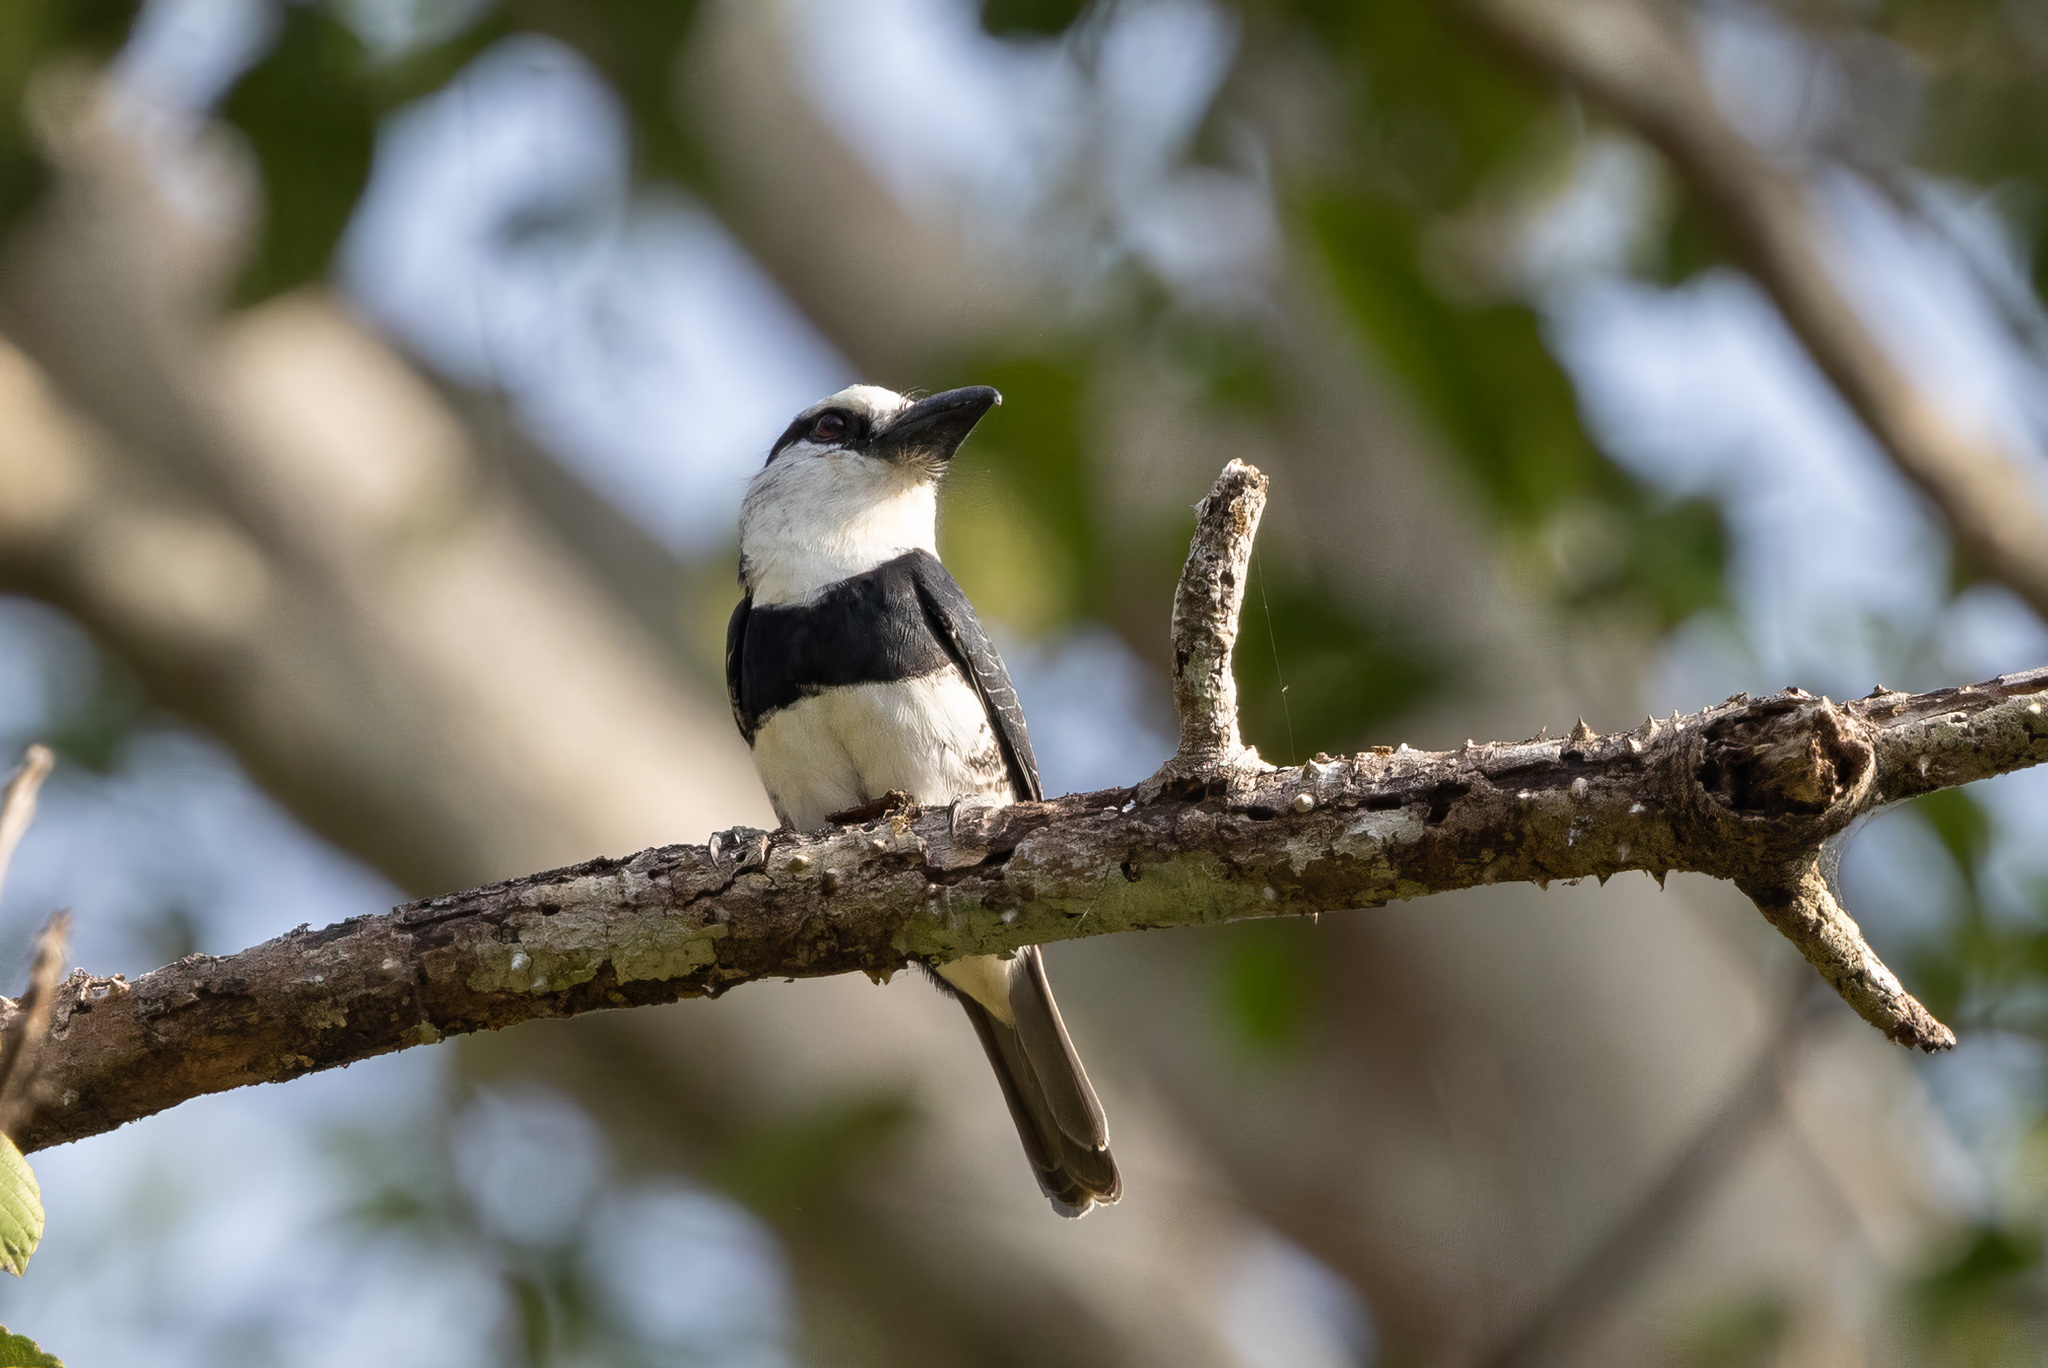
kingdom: Animalia
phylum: Chordata
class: Aves
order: Piciformes
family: Bucconidae
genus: Notharchus
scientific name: Notharchus hyperrhynchus
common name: White-necked puffbird
